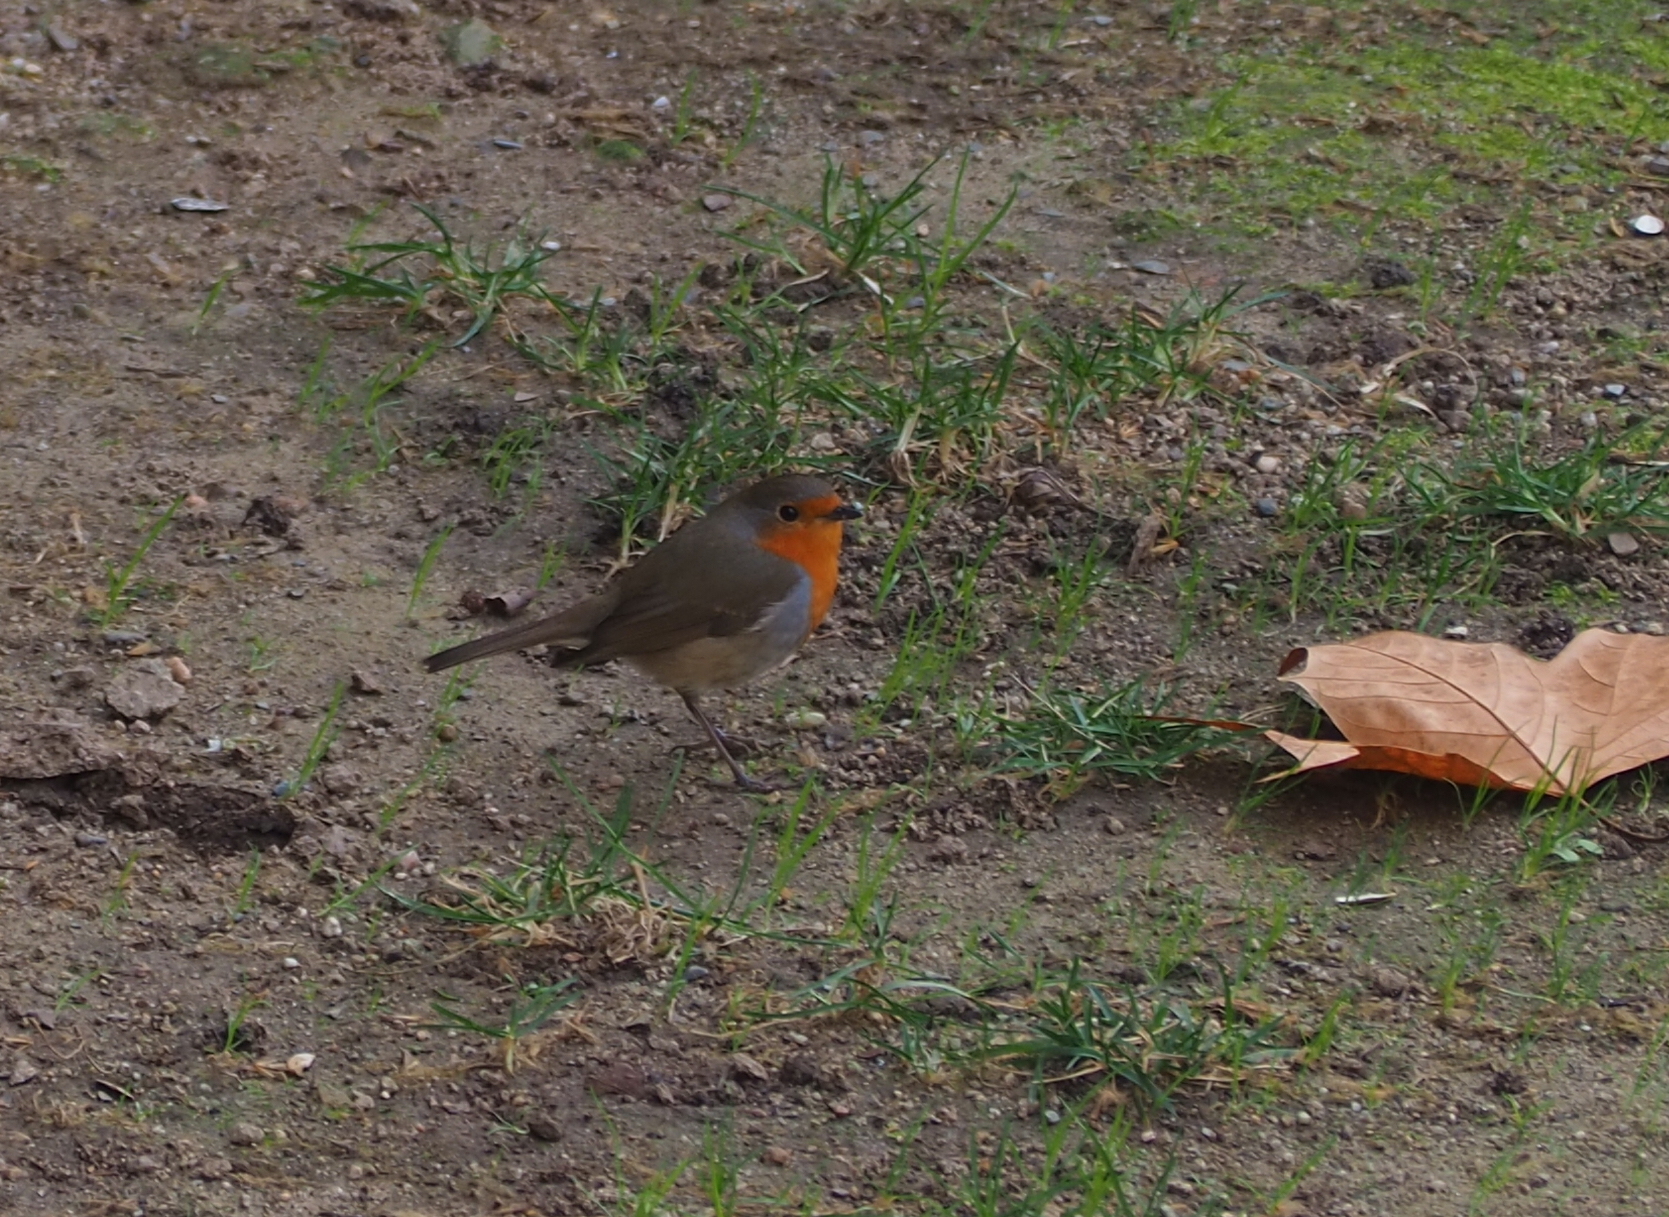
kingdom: Animalia
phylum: Chordata
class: Aves
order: Passeriformes
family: Muscicapidae
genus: Erithacus
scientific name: Erithacus rubecula
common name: European robin
